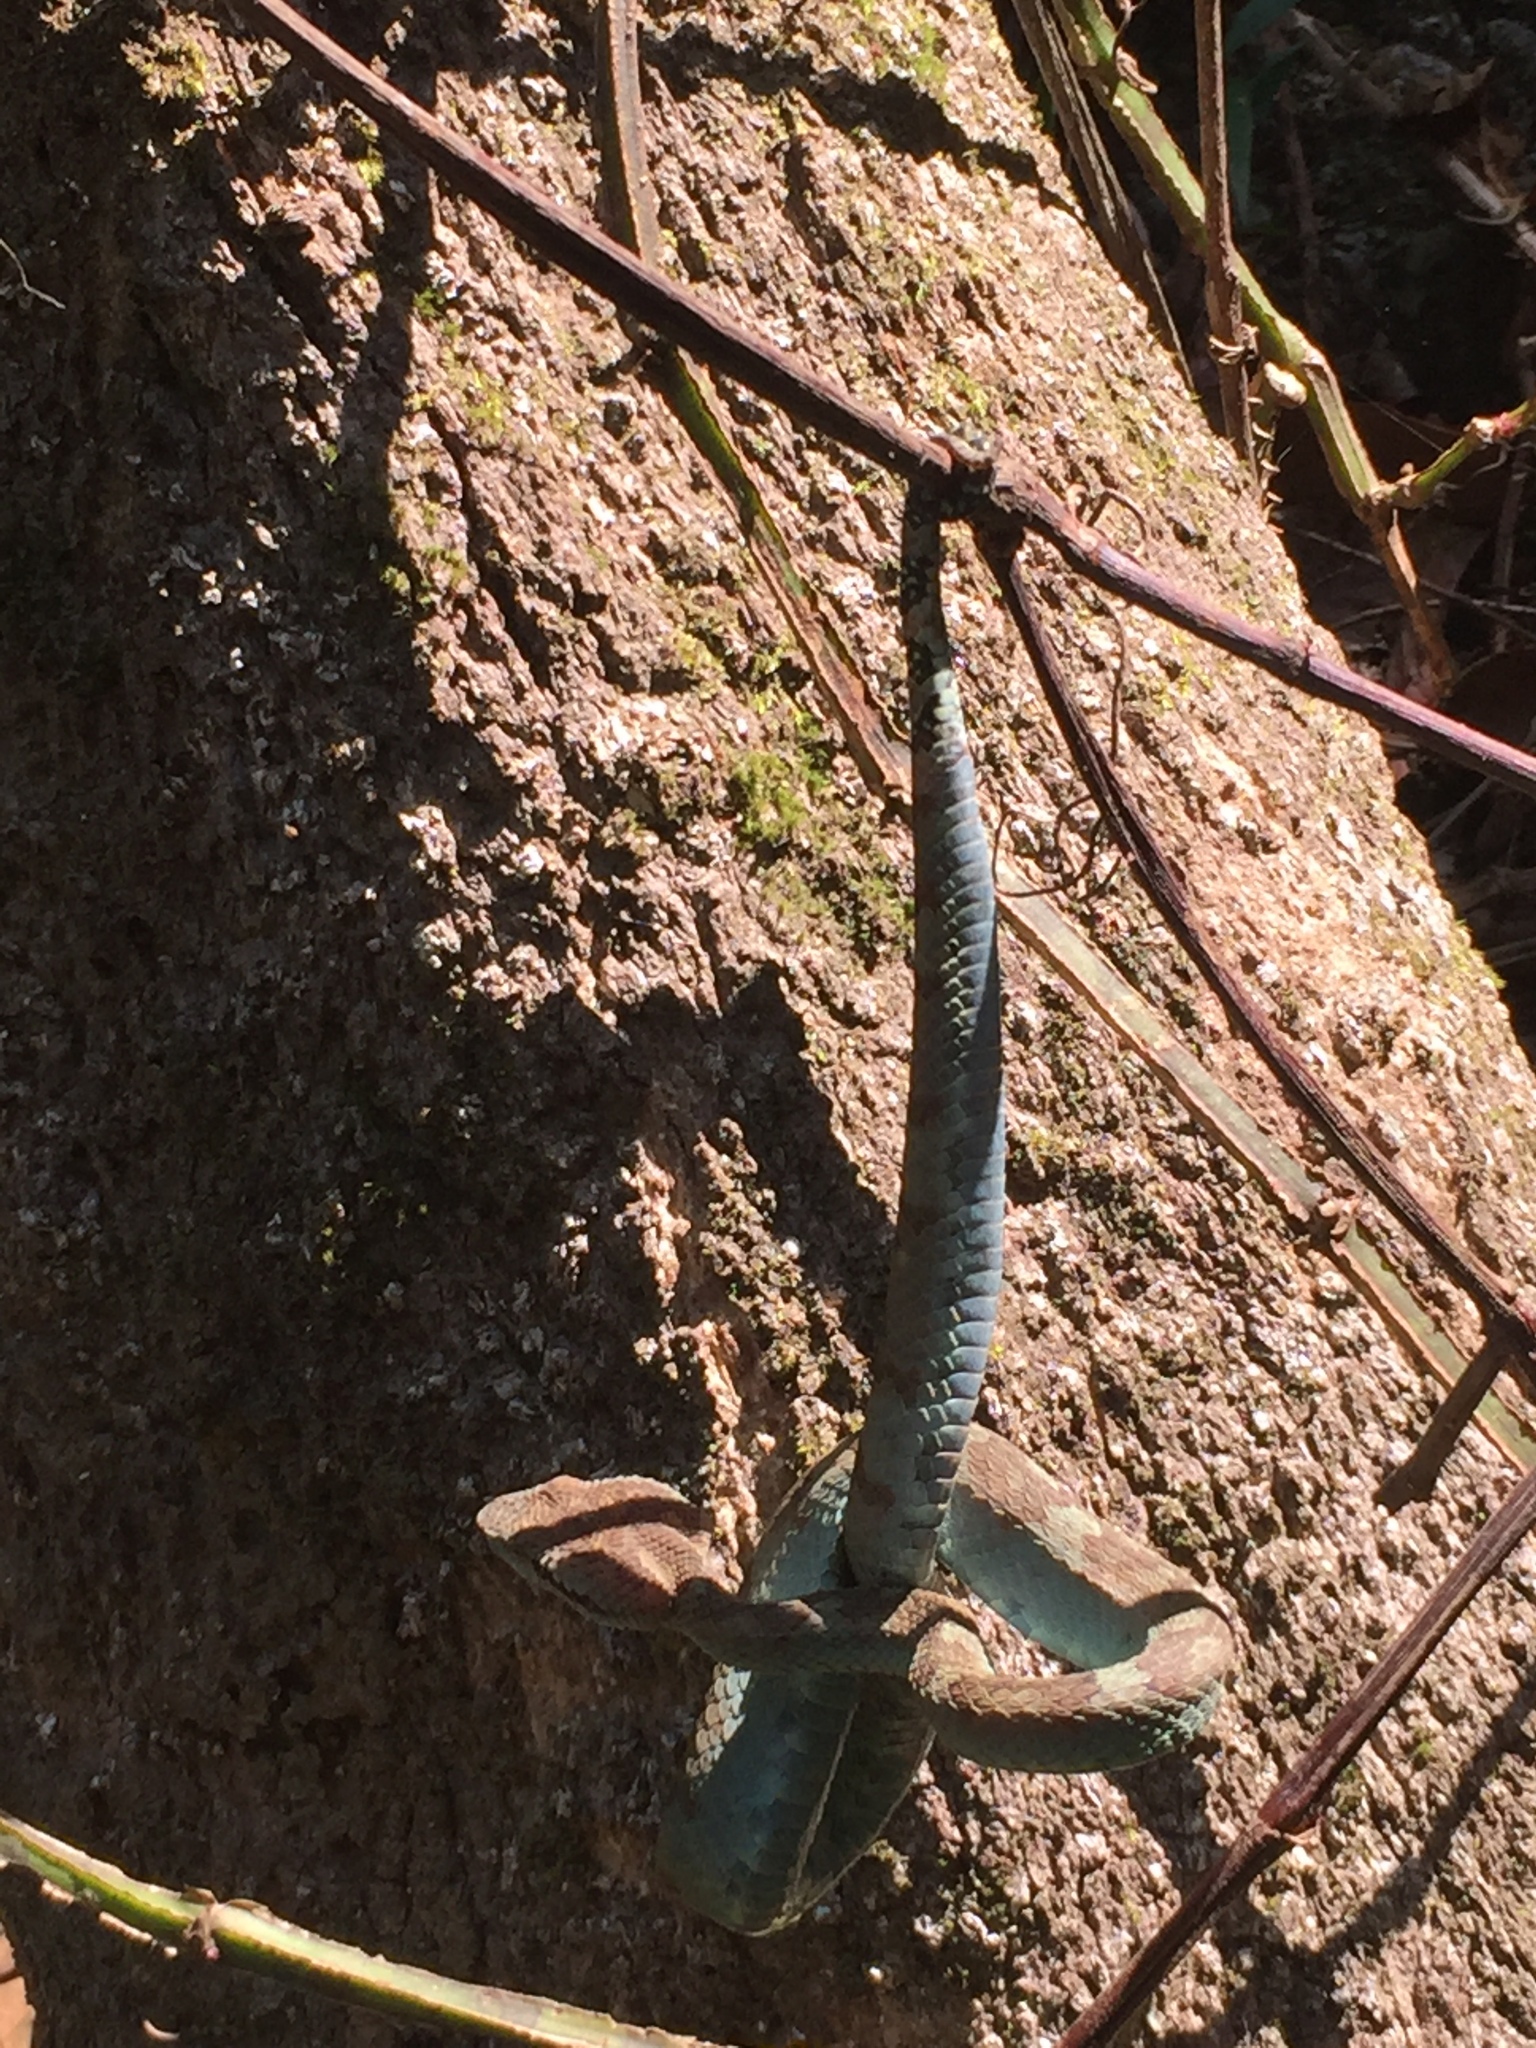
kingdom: Animalia
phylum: Chordata
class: Squamata
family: Viperidae
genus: Craspedocephalus
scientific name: Craspedocephalus malabaricus
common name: Malabarian pit viper
